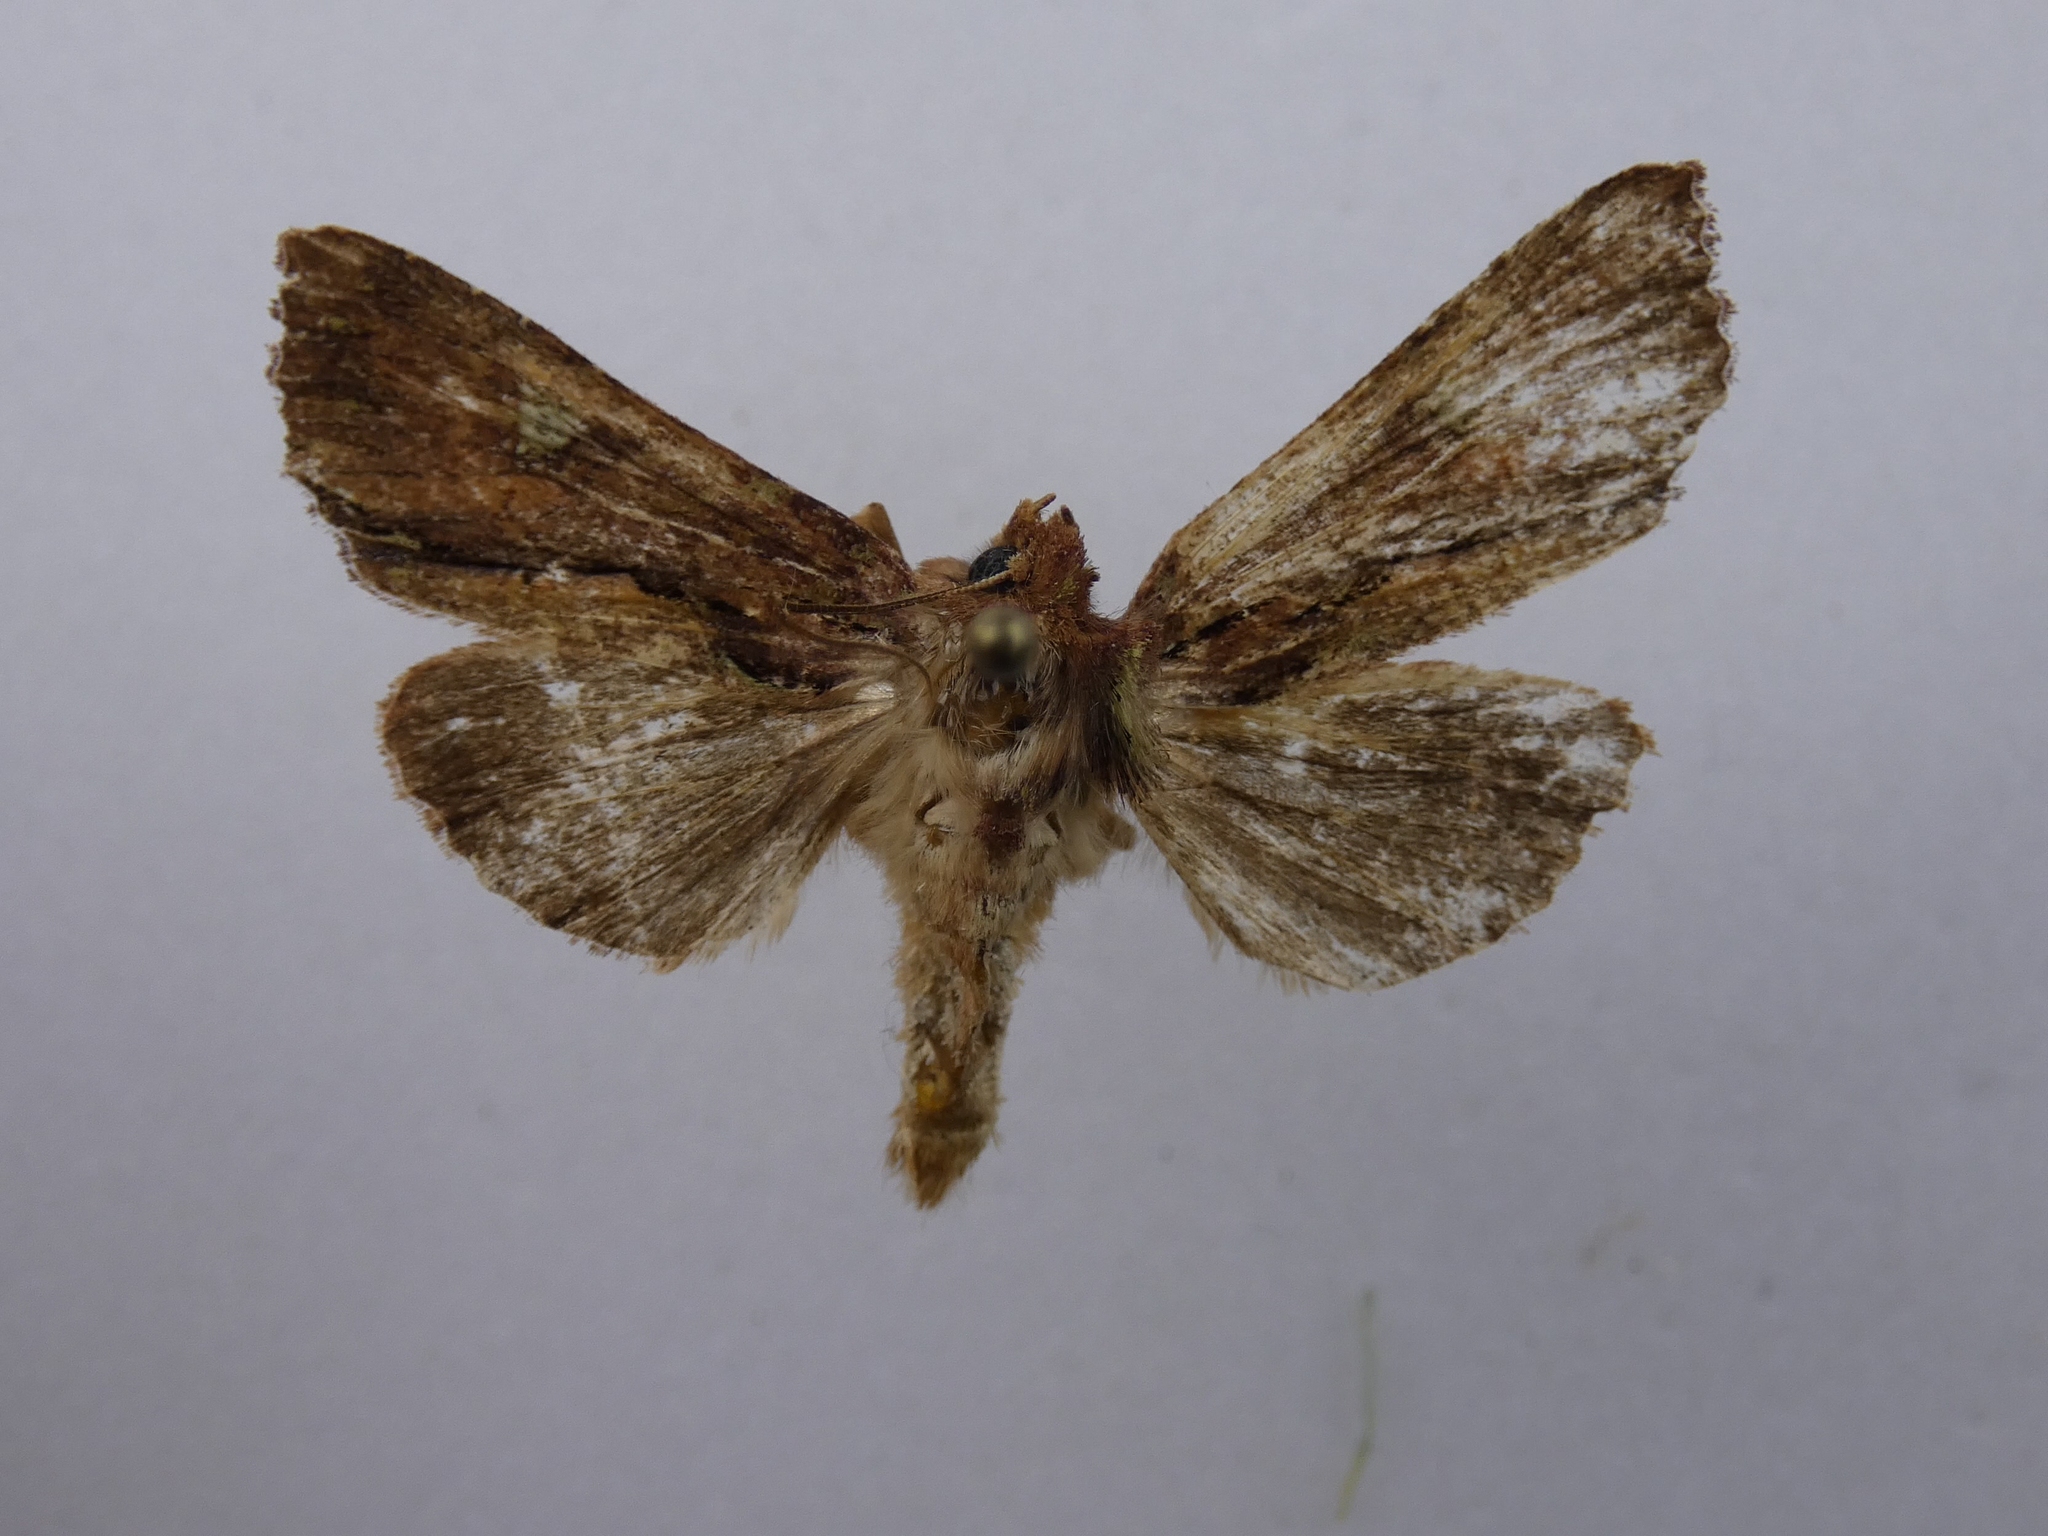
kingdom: Animalia
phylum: Arthropoda
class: Insecta
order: Lepidoptera
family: Noctuidae
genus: Meterana
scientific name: Meterana diatmeta
